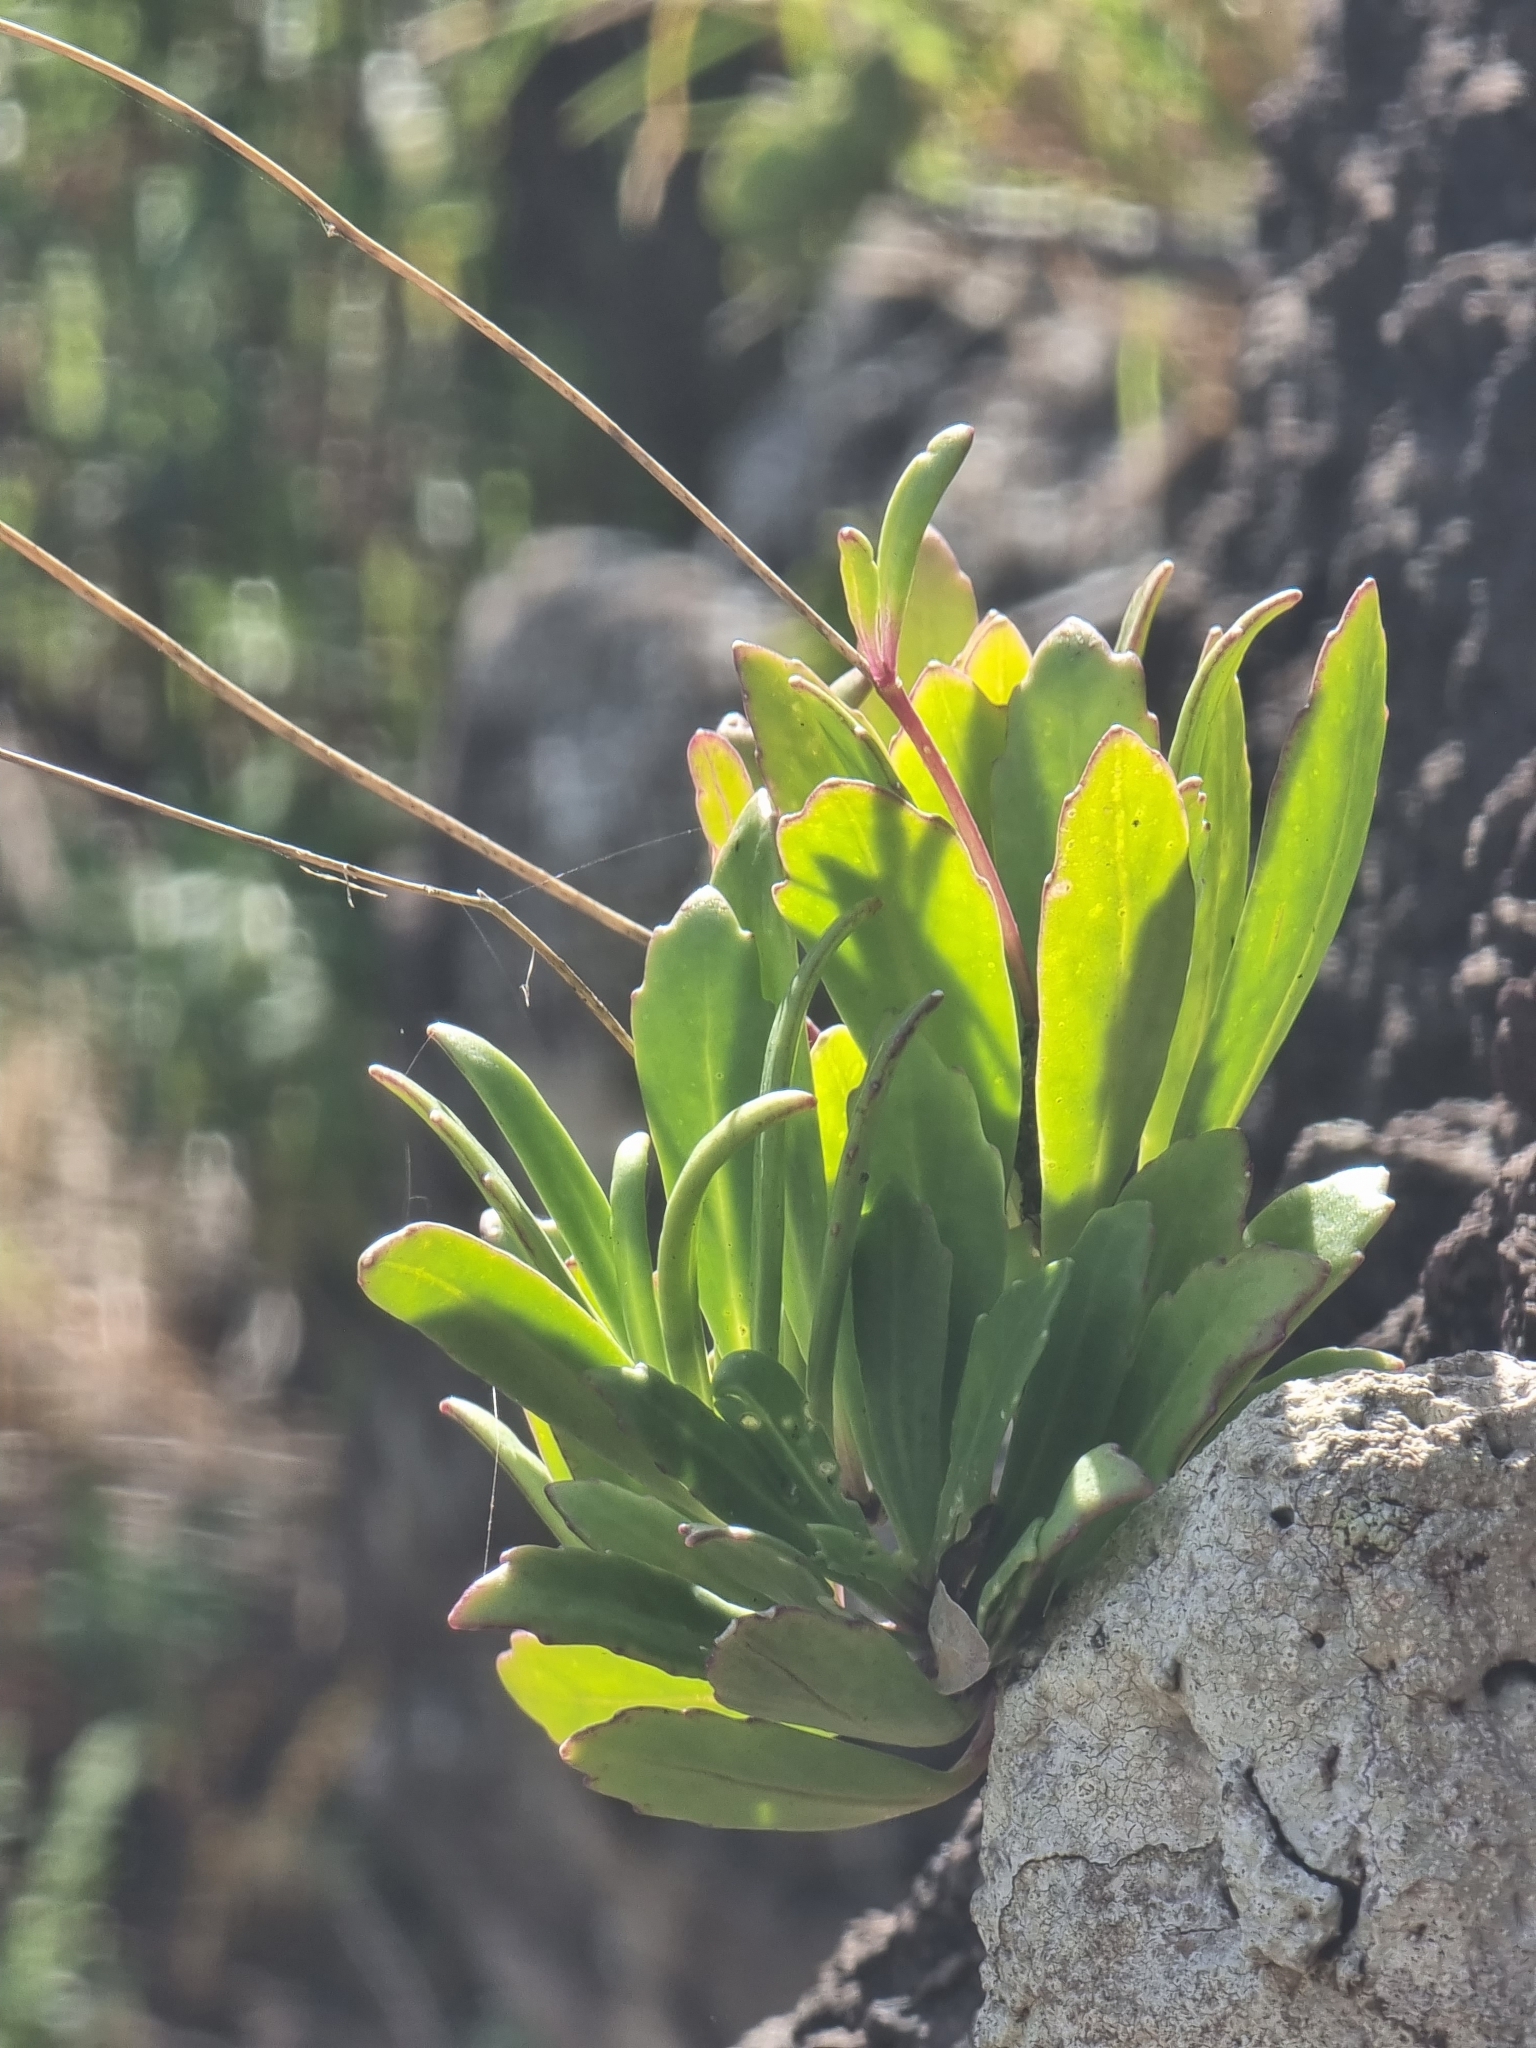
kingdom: Plantae
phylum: Tracheophyta
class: Magnoliopsida
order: Brassicales
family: Brassicaceae
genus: Sinapidendron
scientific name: Sinapidendron frutescens
